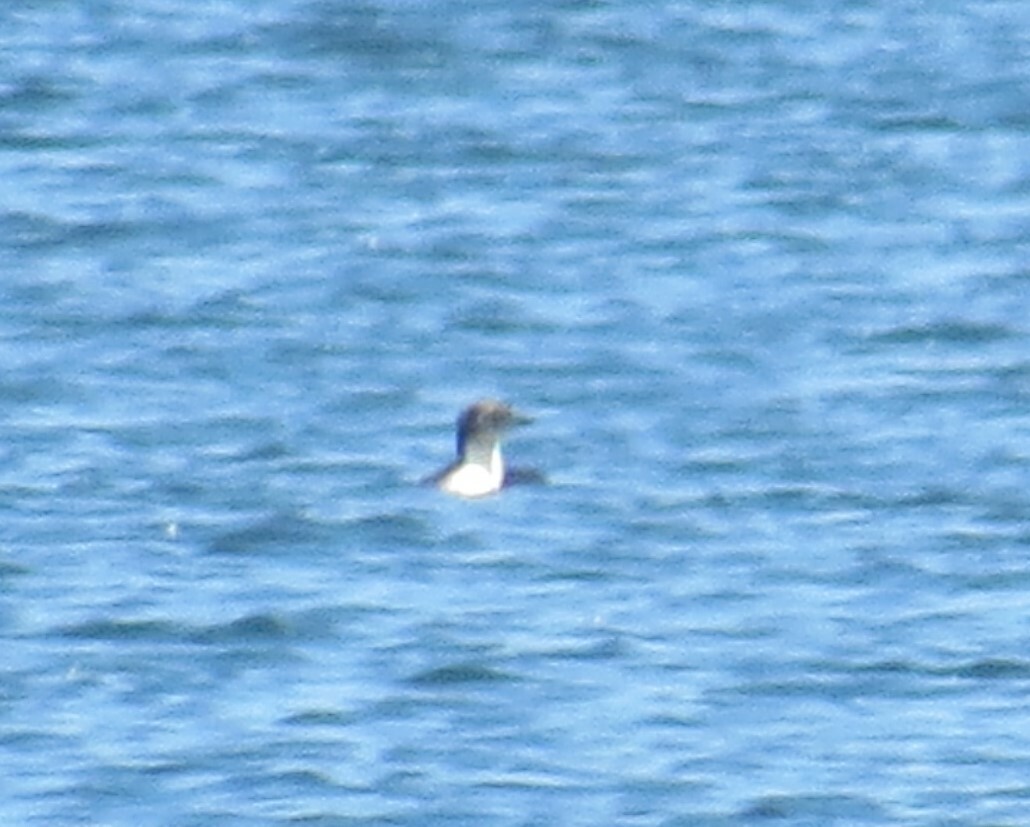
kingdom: Animalia
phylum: Chordata
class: Aves
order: Gaviiformes
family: Gaviidae
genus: Gavia
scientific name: Gavia pacifica
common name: Pacific loon
